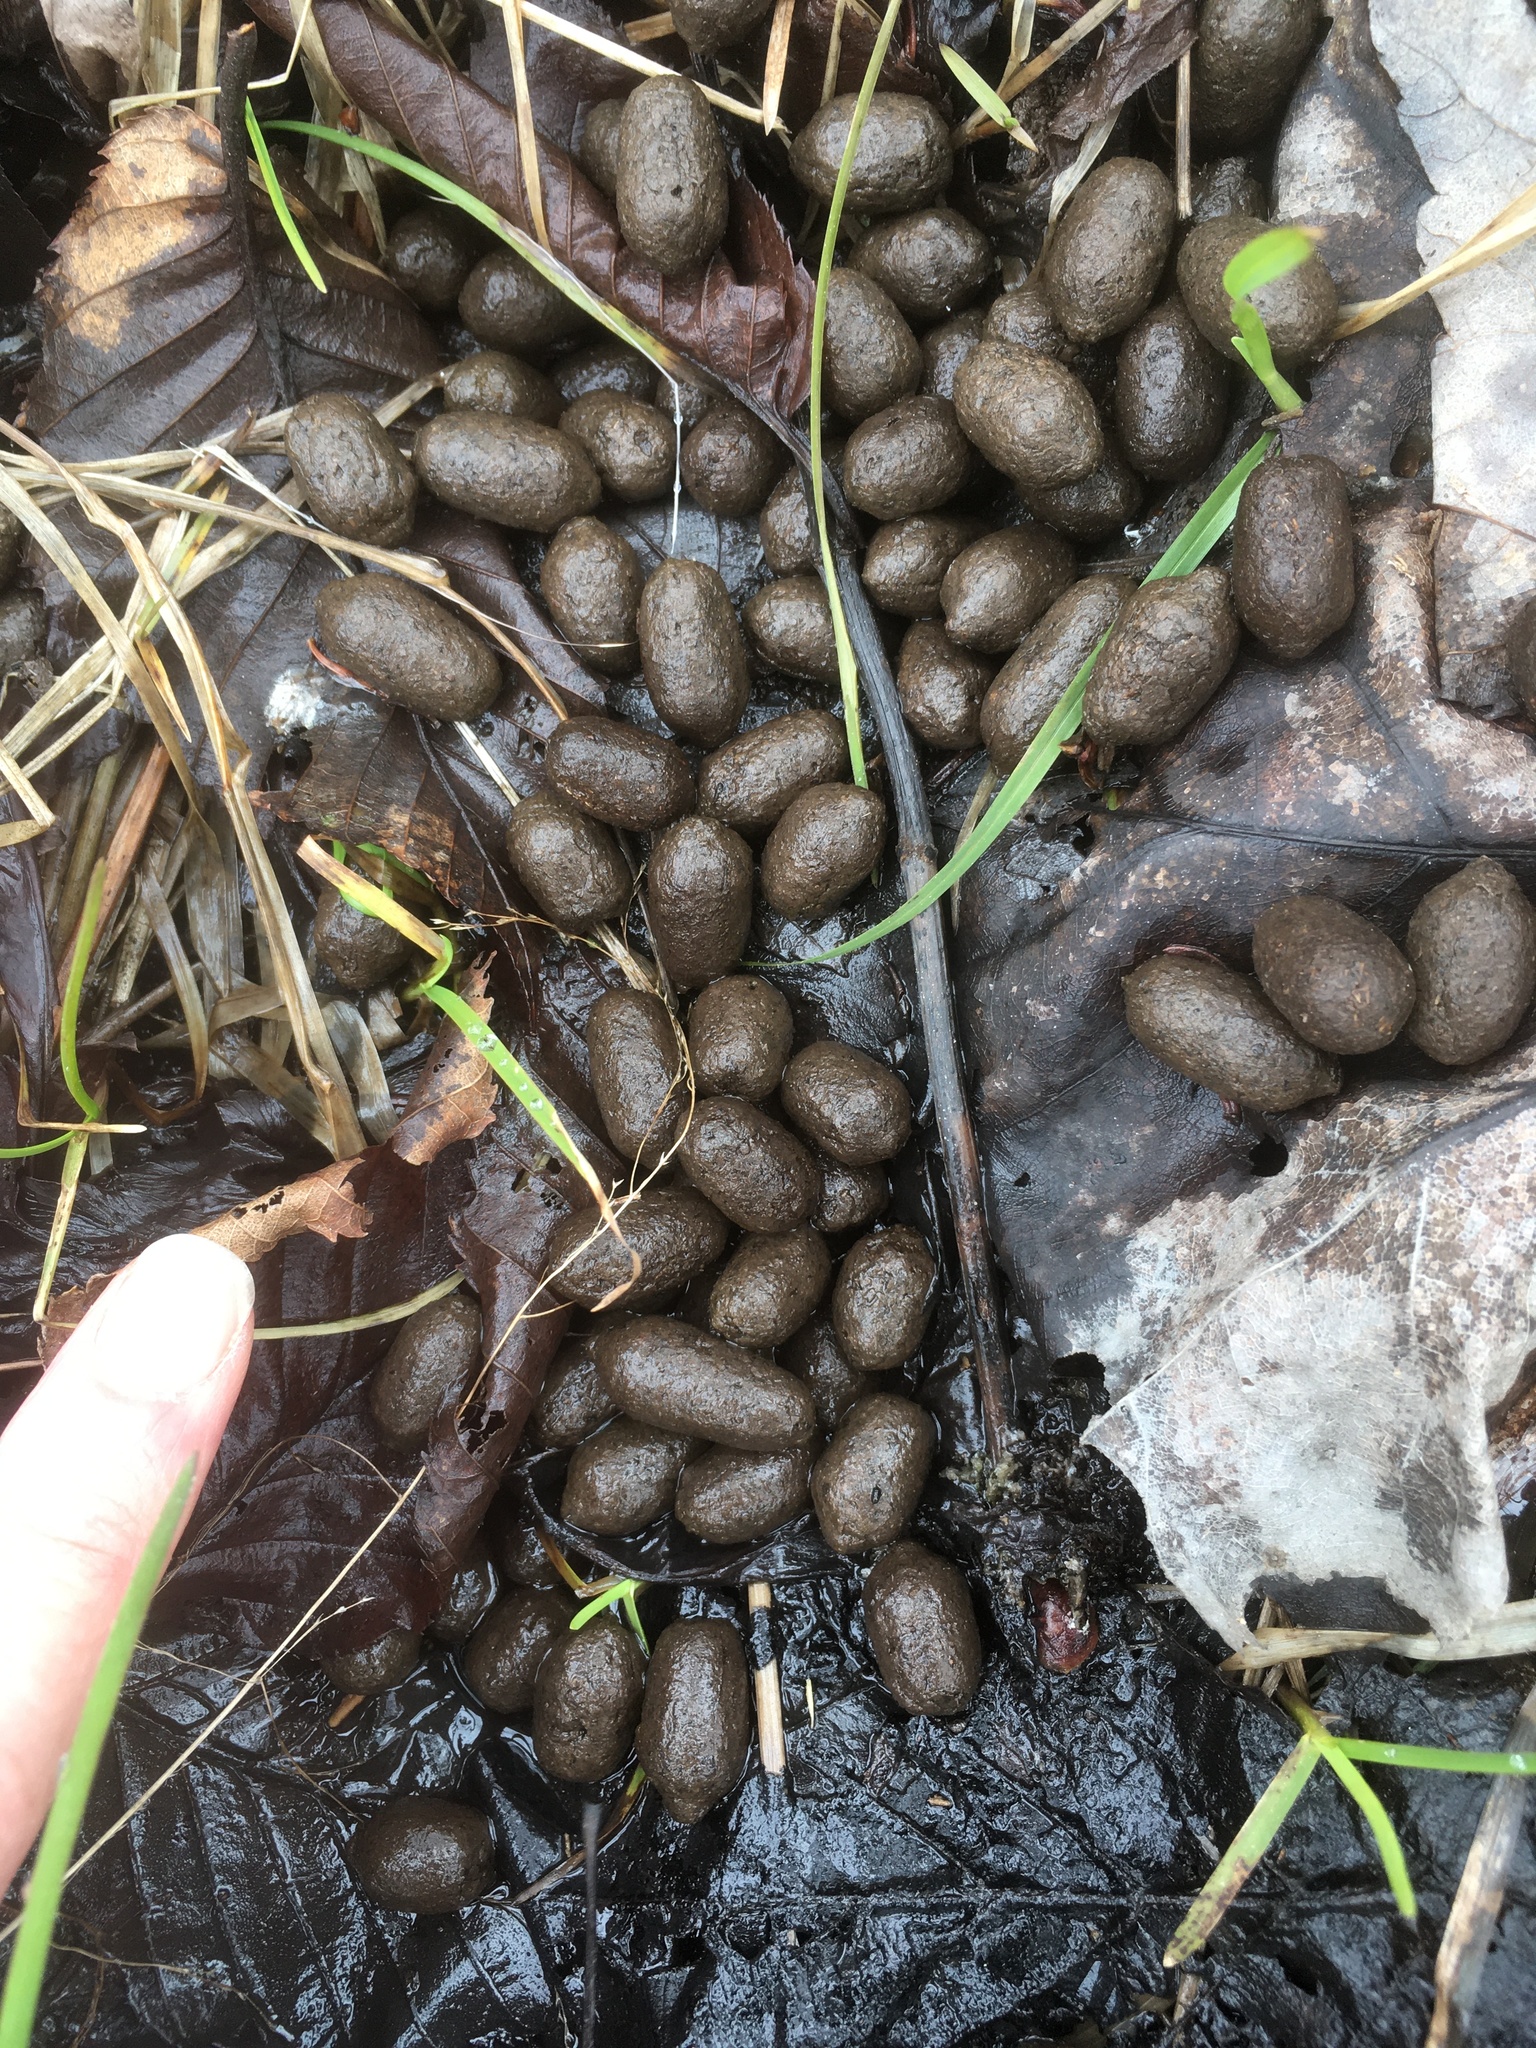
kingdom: Animalia
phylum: Chordata
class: Mammalia
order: Artiodactyla
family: Cervidae
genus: Alces
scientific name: Alces alces
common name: Moose
